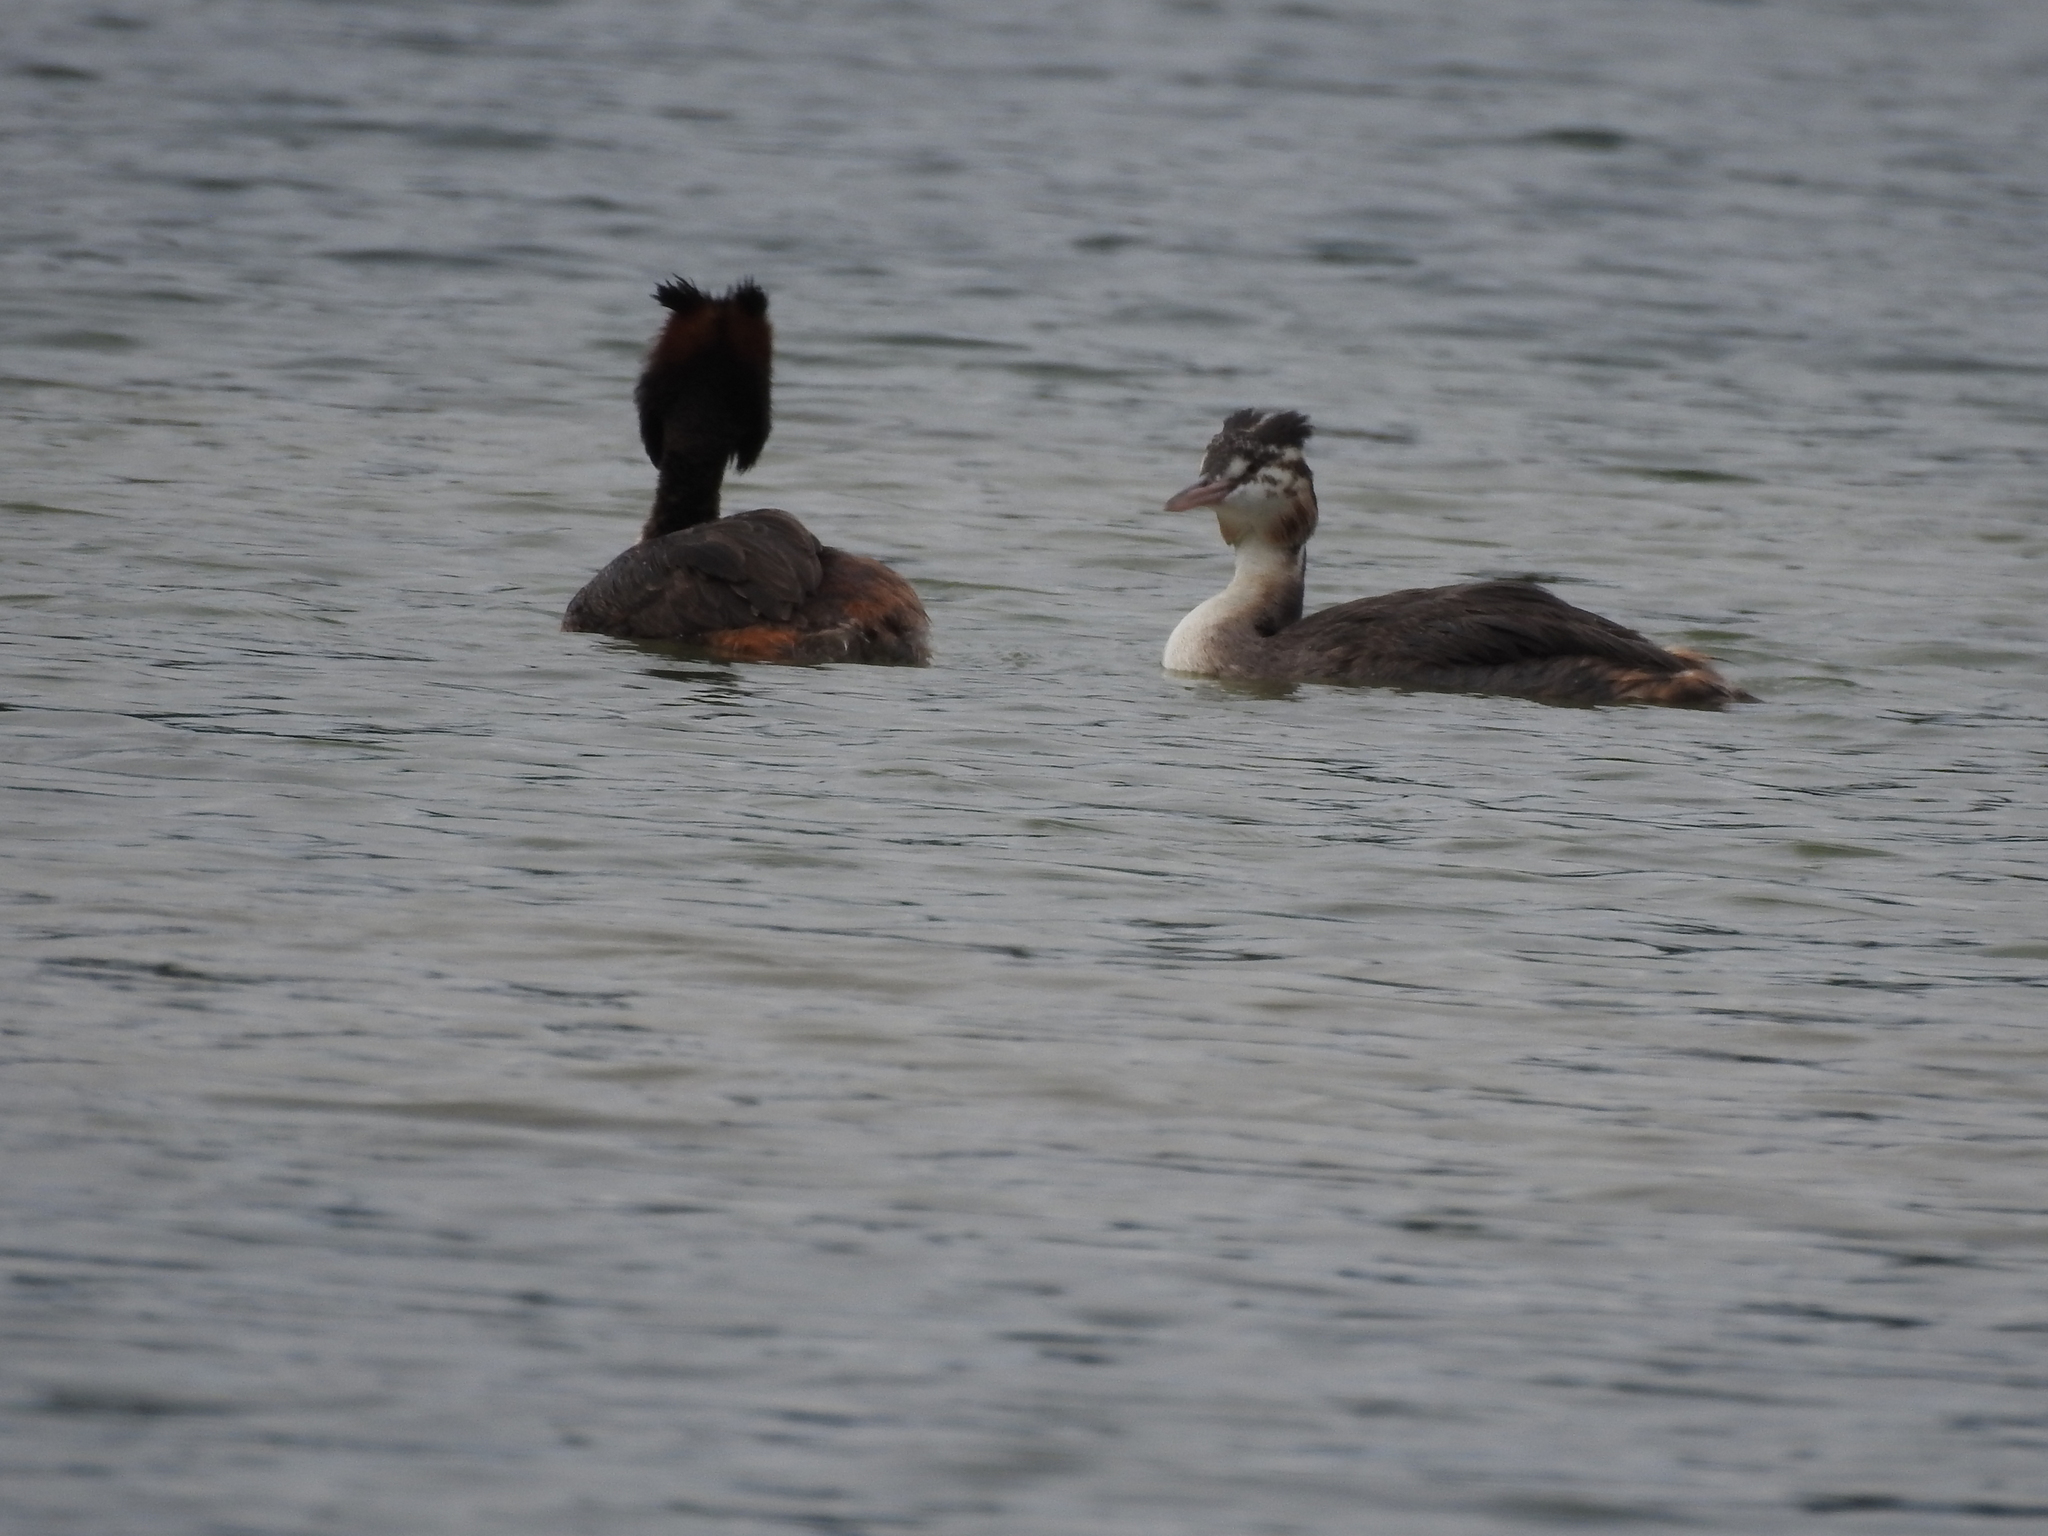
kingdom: Animalia
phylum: Chordata
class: Aves
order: Podicipediformes
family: Podicipedidae
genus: Podiceps
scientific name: Podiceps cristatus
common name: Great crested grebe
